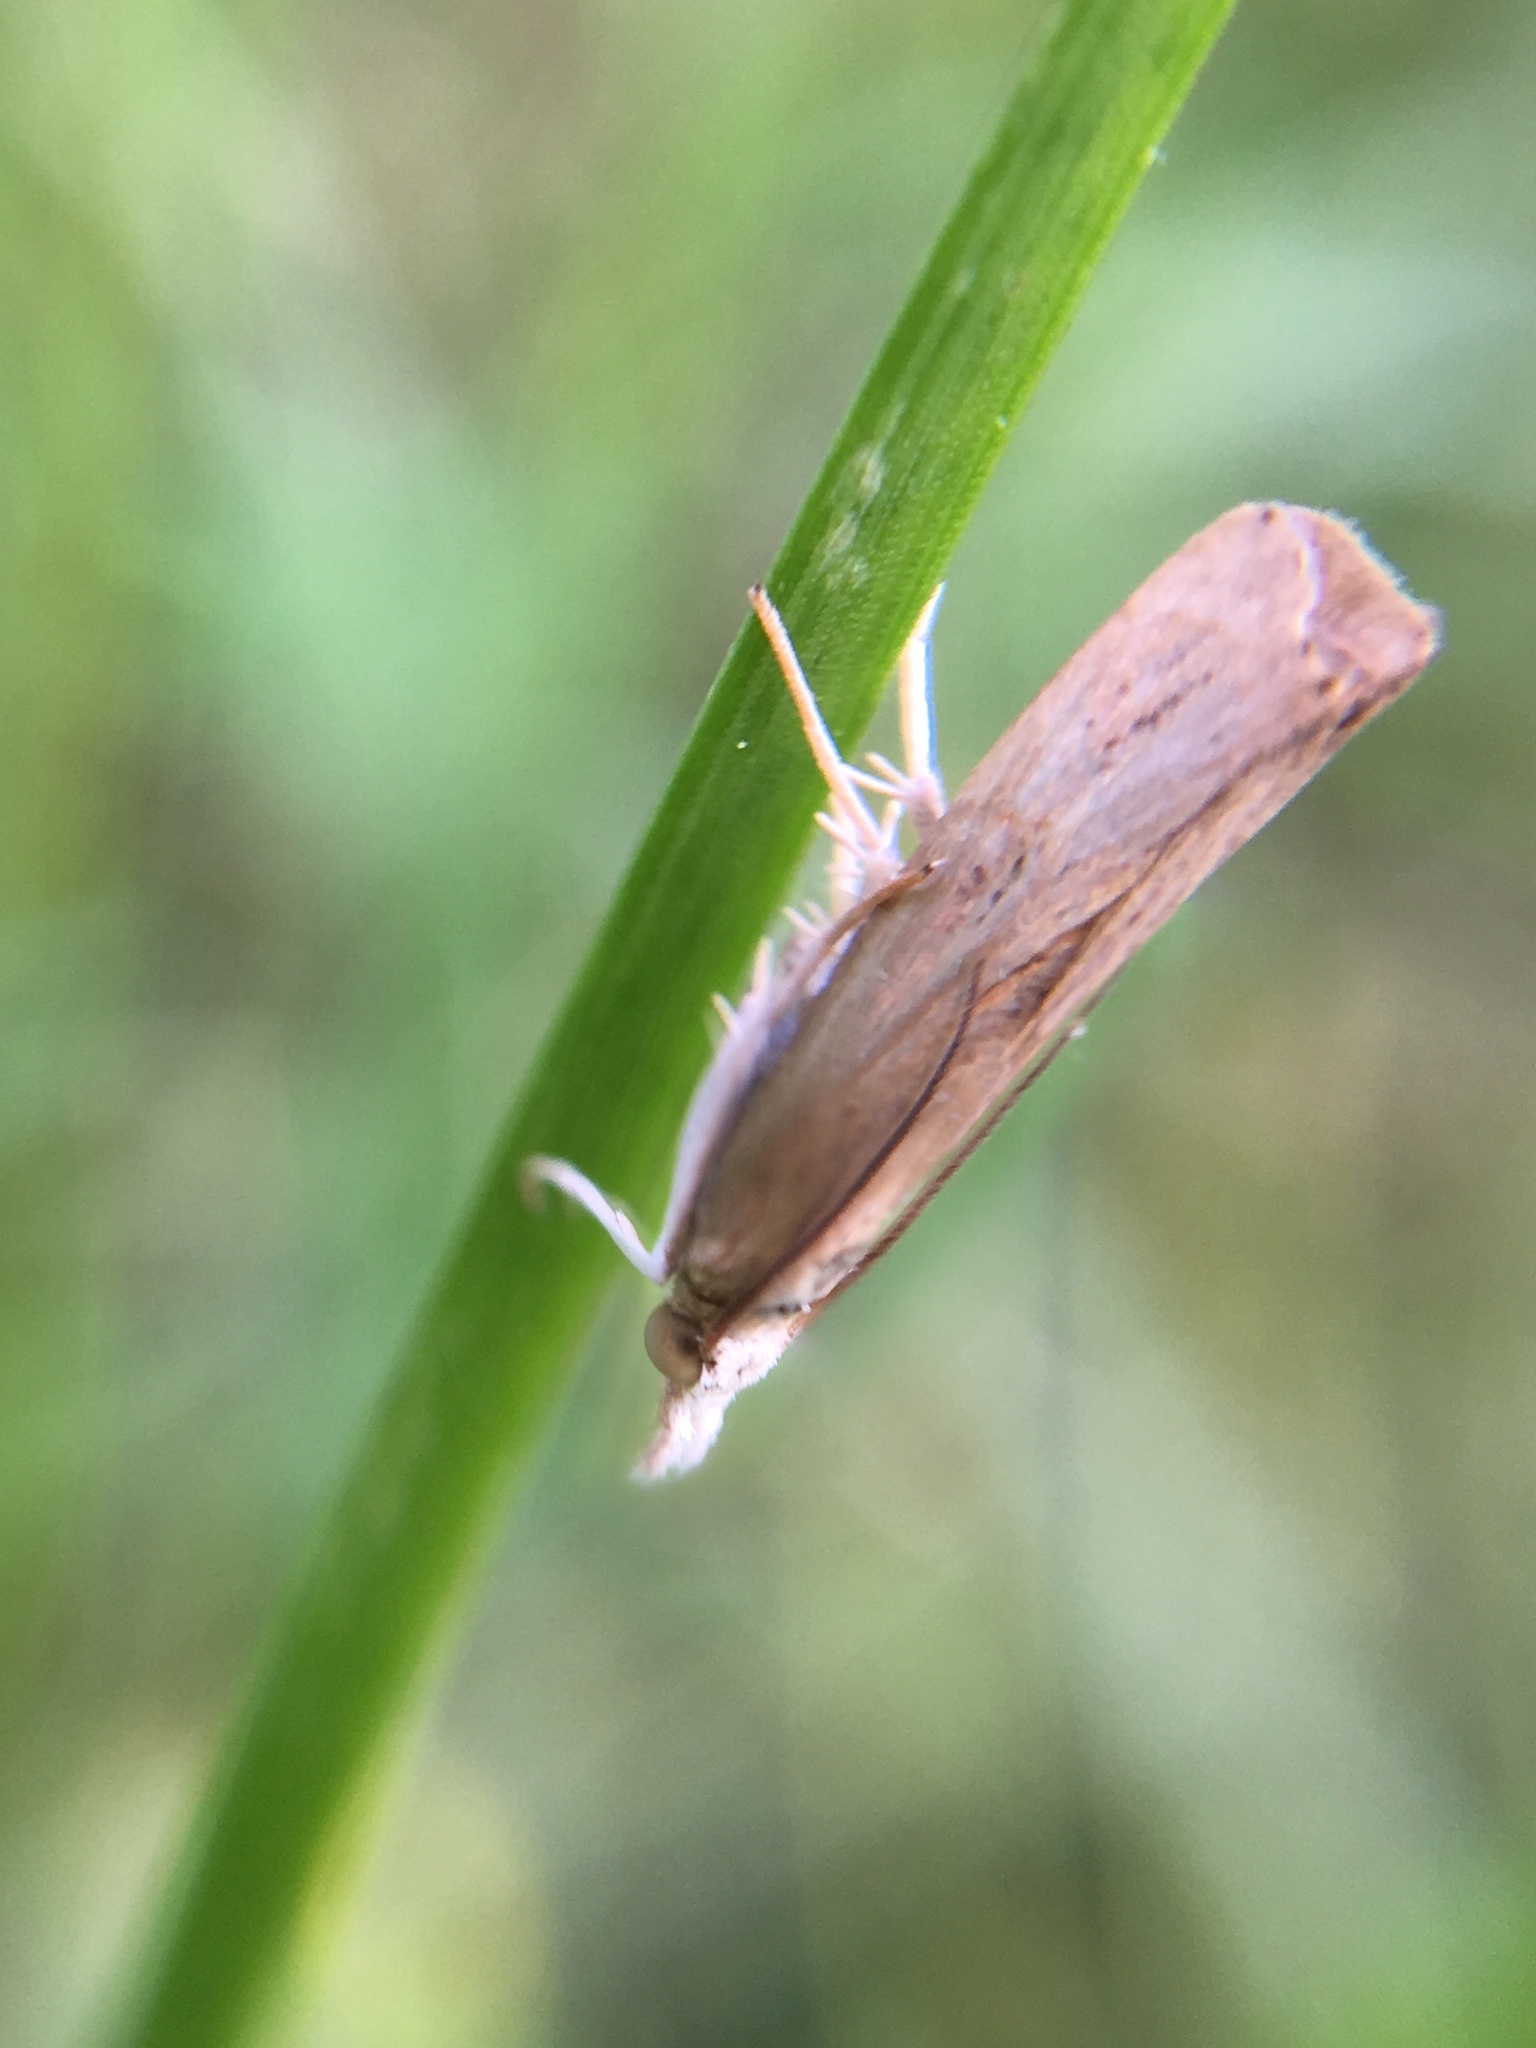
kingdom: Animalia
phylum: Arthropoda
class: Insecta
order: Lepidoptera
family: Crambidae
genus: Parapediasia
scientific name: Parapediasia teterellus
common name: Bluegrass webworm moth
